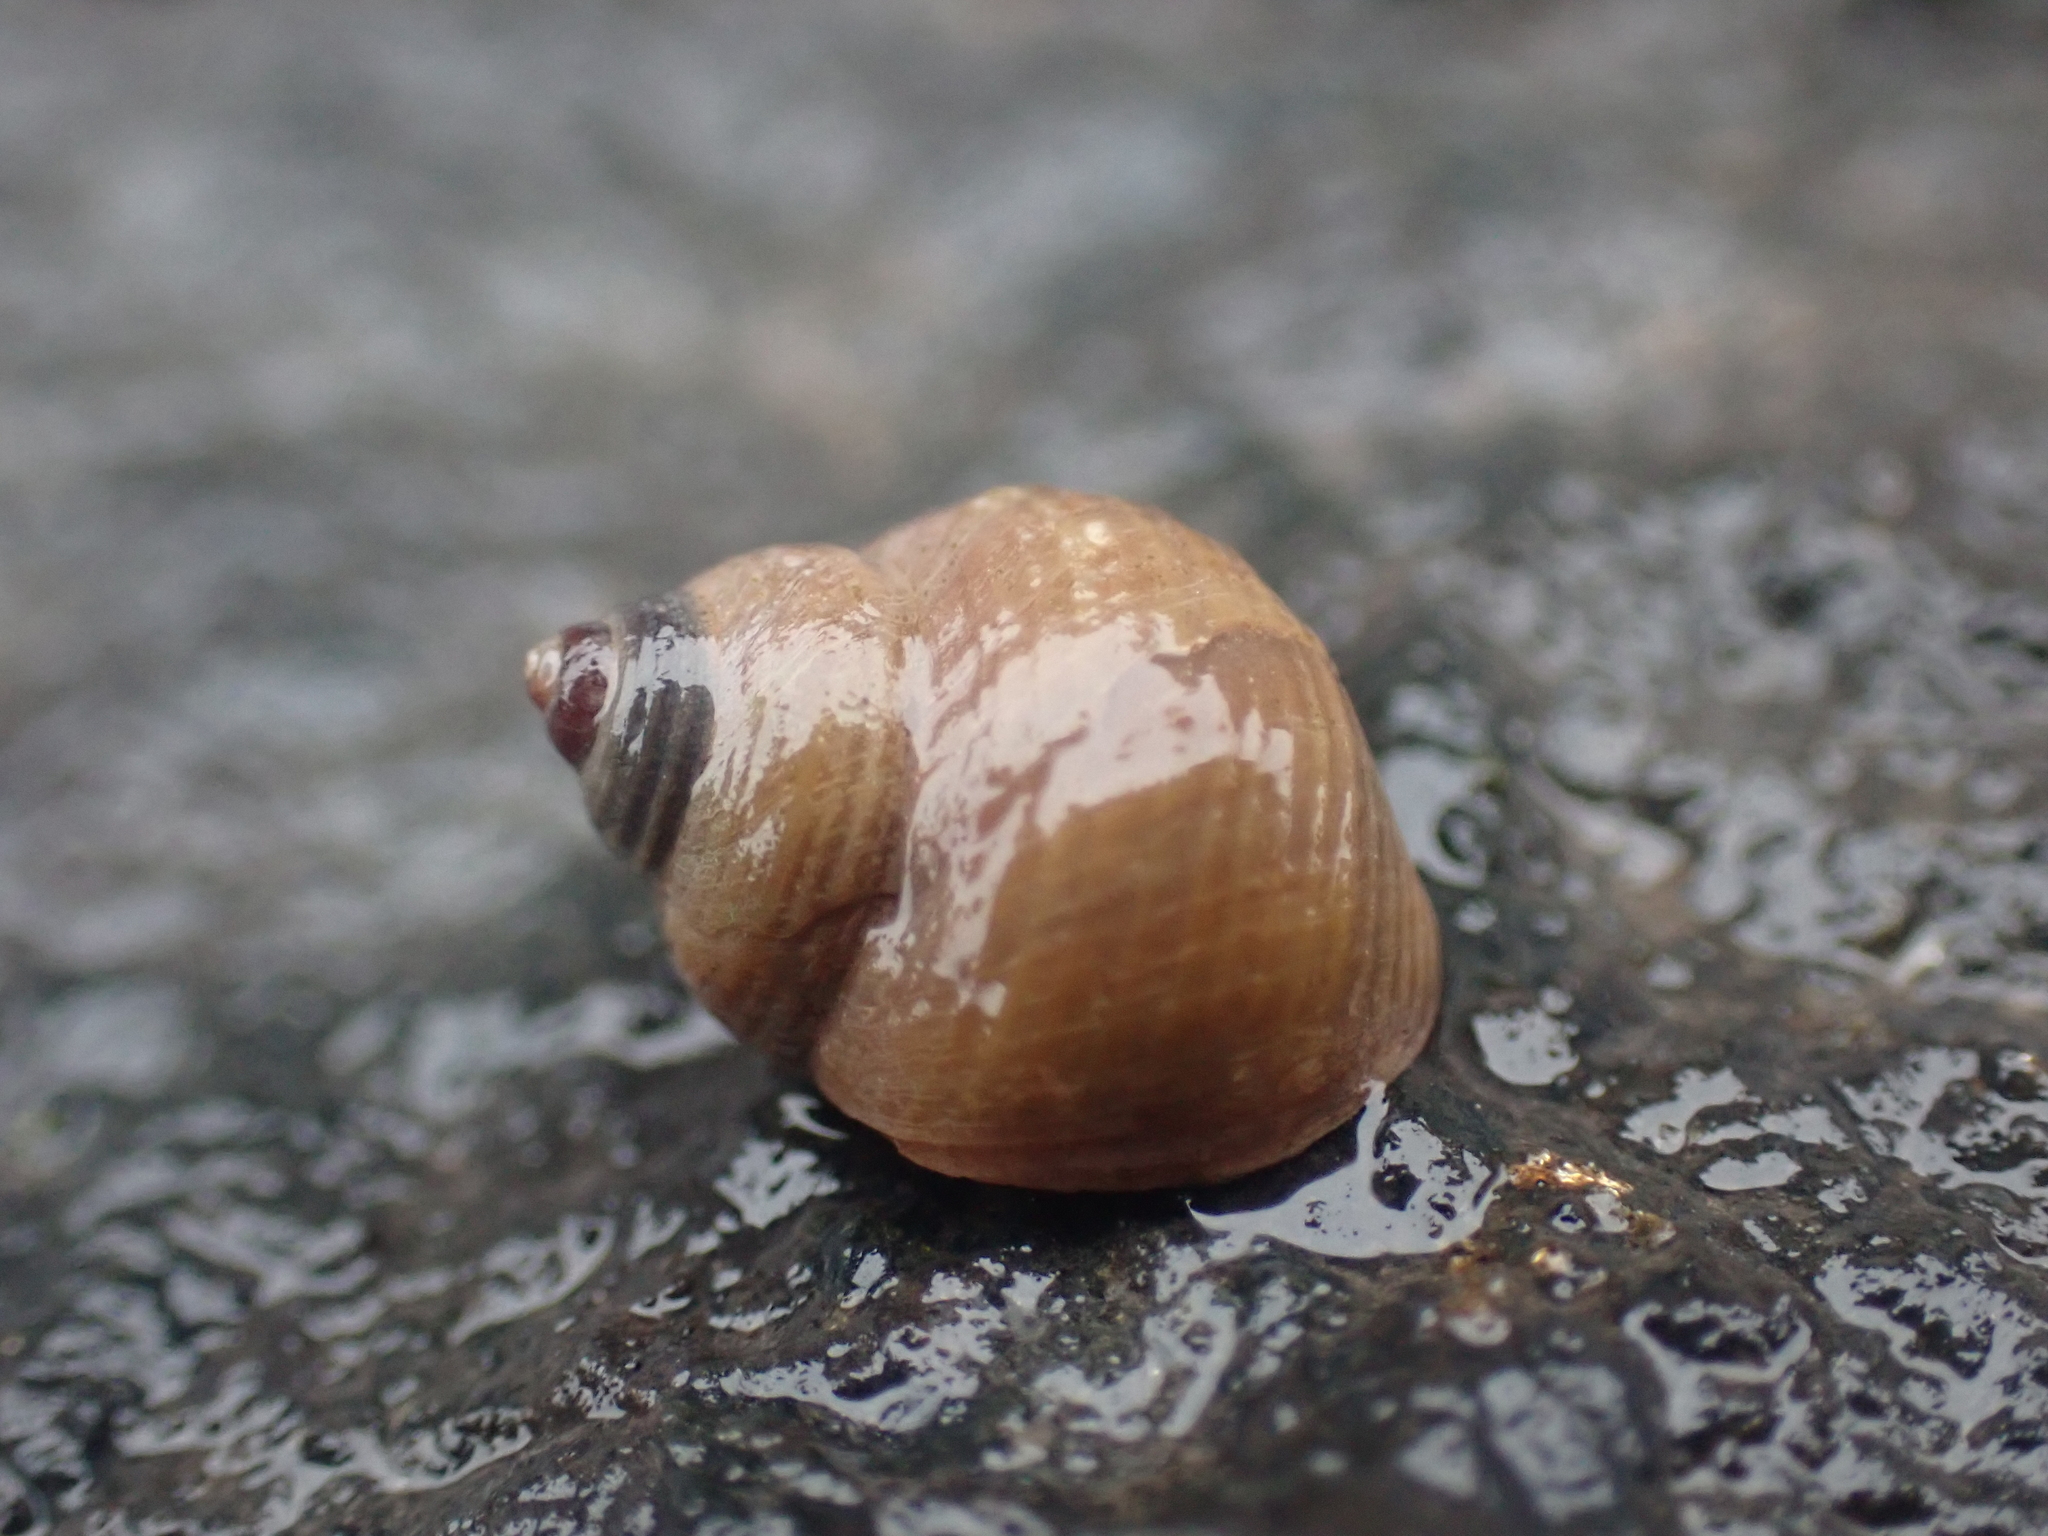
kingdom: Animalia
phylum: Mollusca
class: Gastropoda
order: Littorinimorpha
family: Littorinidae
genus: Littorina
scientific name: Littorina saxatilis
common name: Black-lined periwinkle
